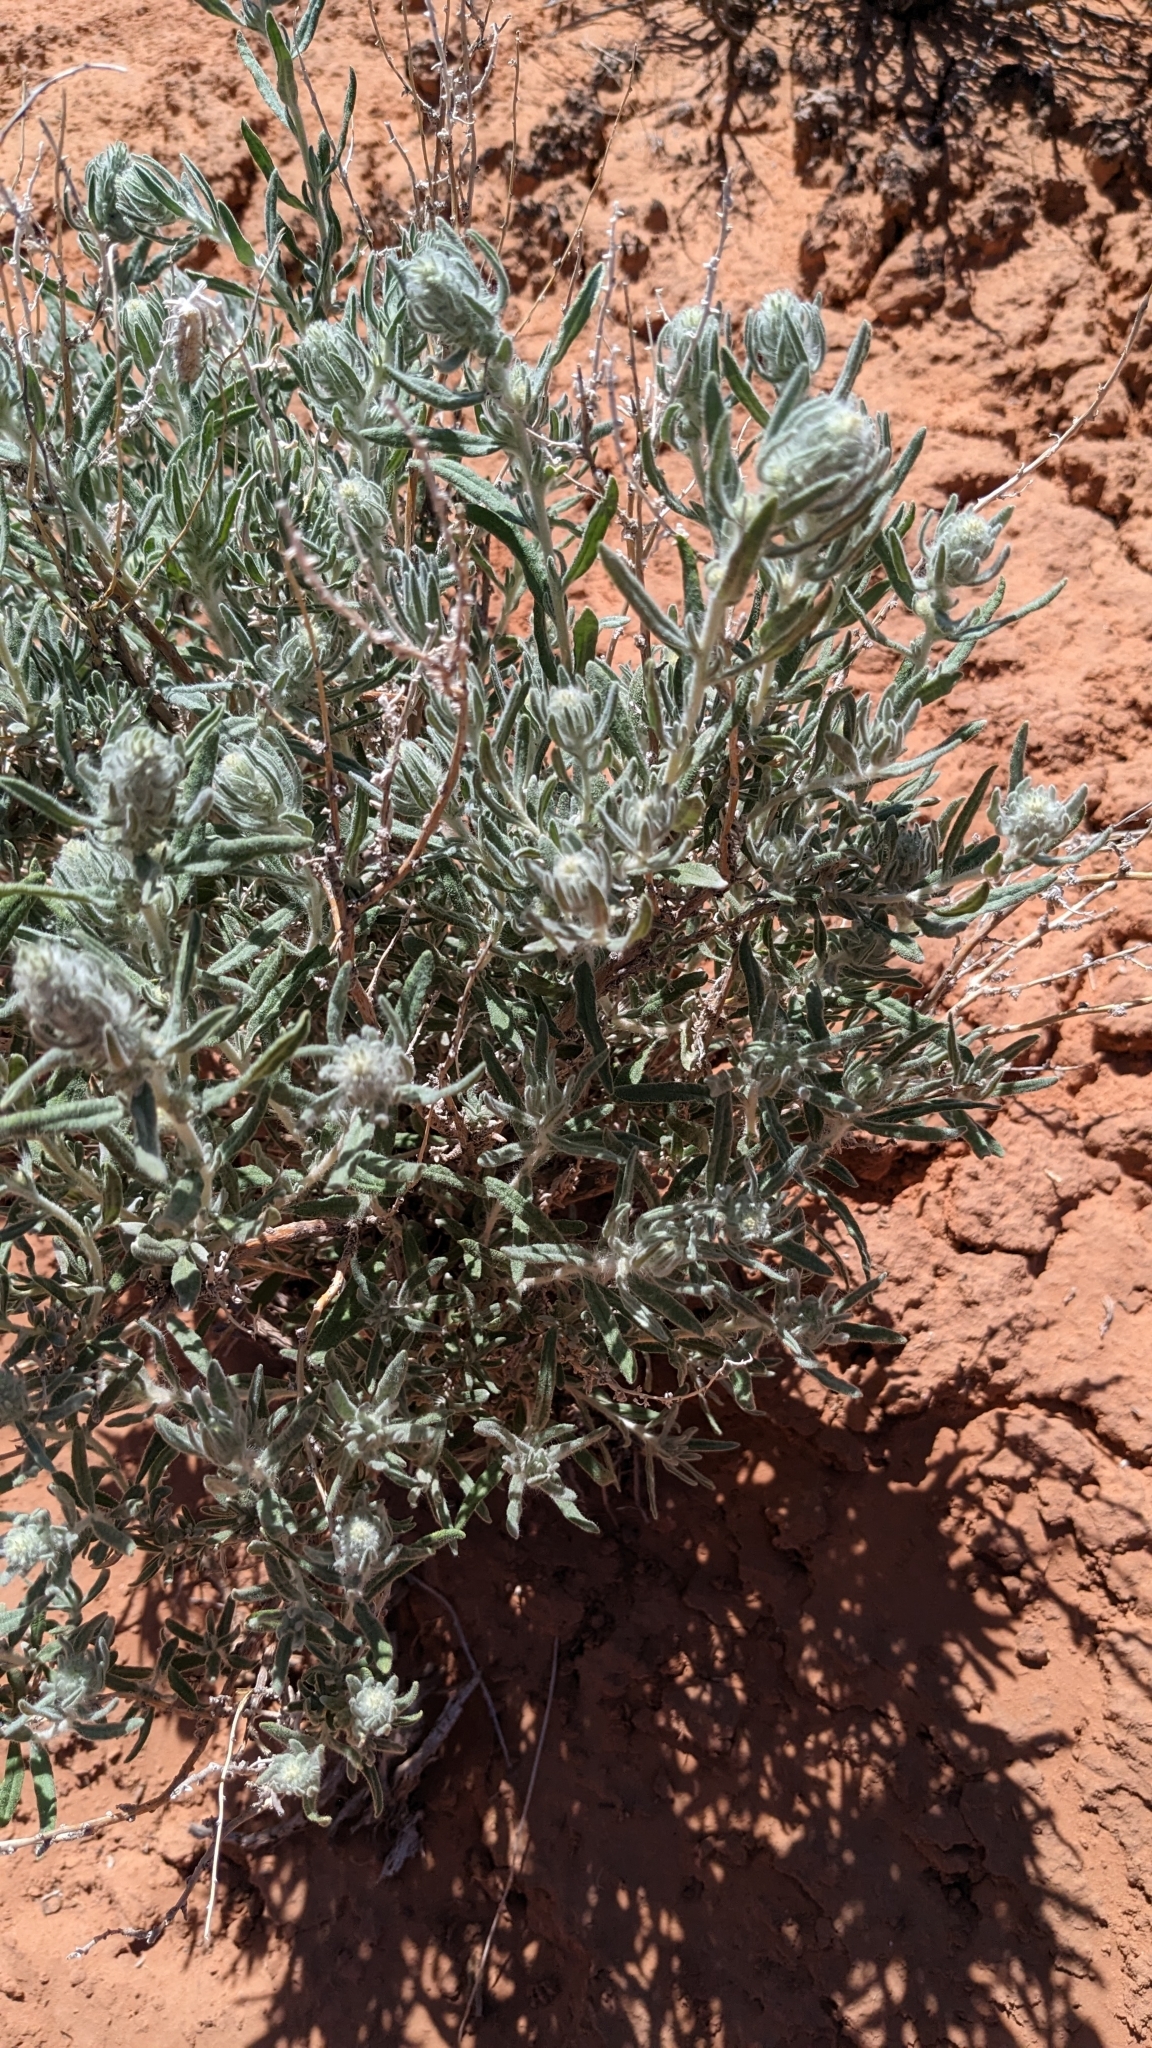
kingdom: Plantae
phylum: Tracheophyta
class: Magnoliopsida
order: Caryophyllales
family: Amaranthaceae
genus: Krascheninnikovia
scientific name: Krascheninnikovia lanata
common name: Winterfat
